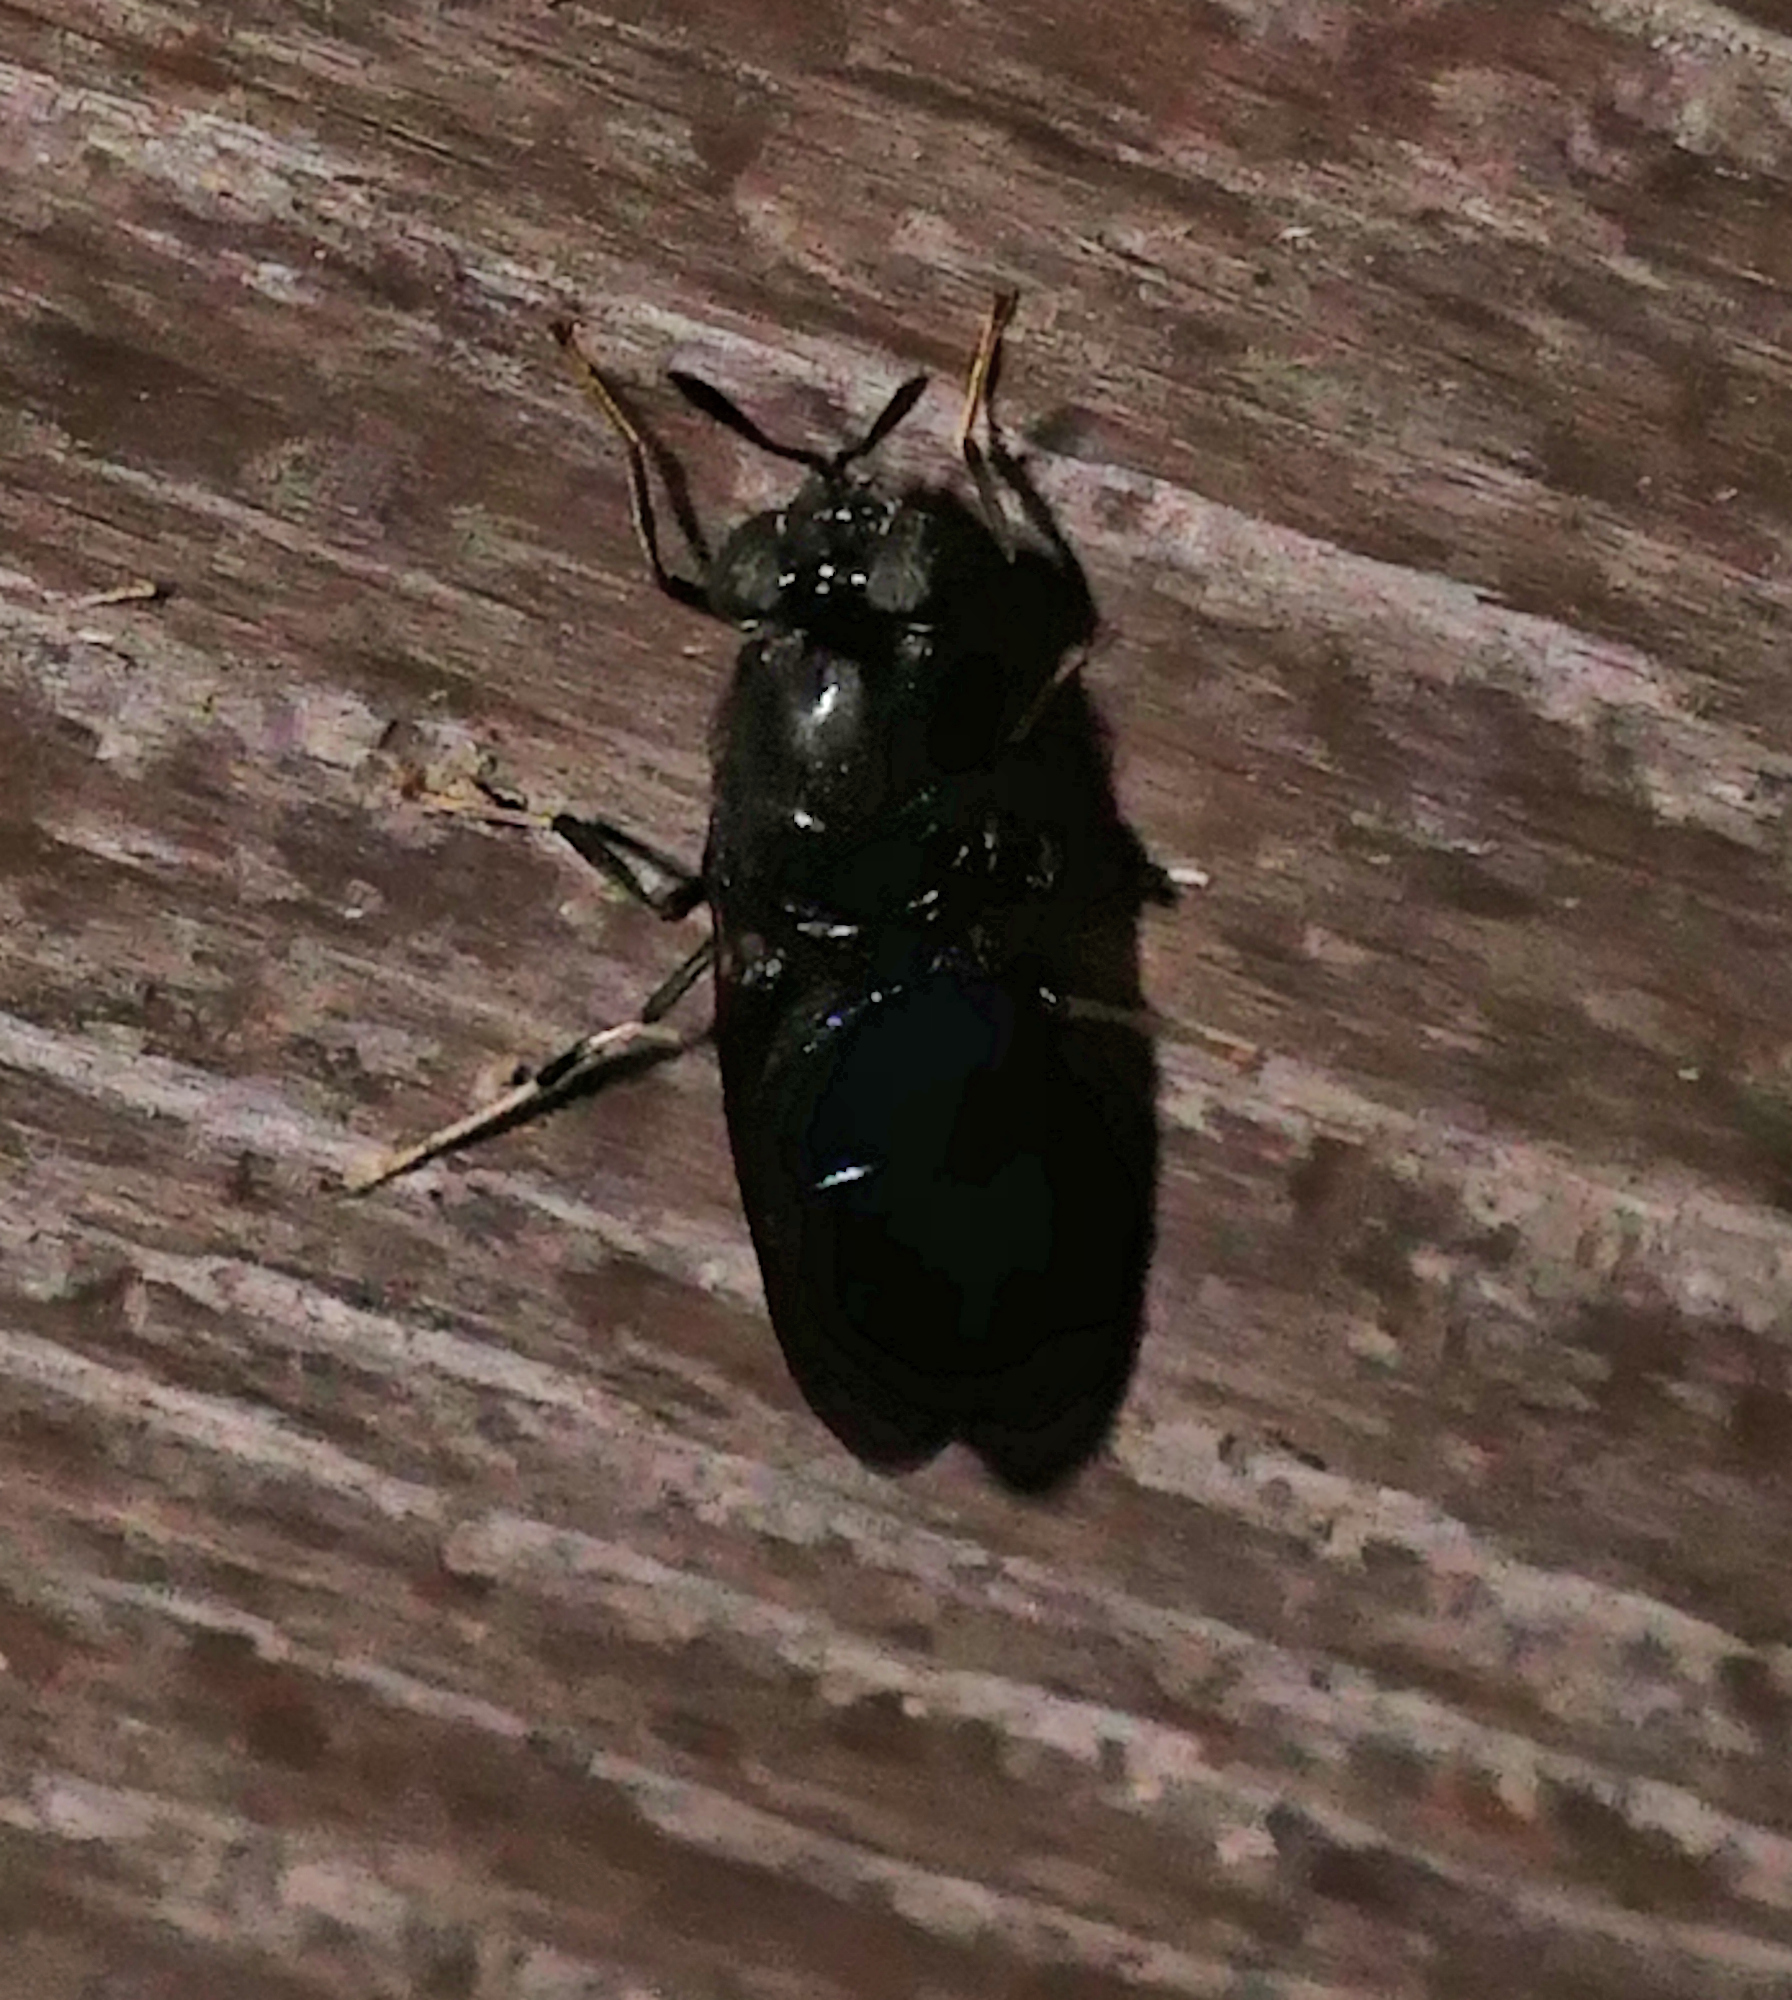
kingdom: Animalia
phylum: Arthropoda
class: Insecta
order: Diptera
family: Stratiomyidae
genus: Hermetia
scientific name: Hermetia illucens
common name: Black soldier fly
